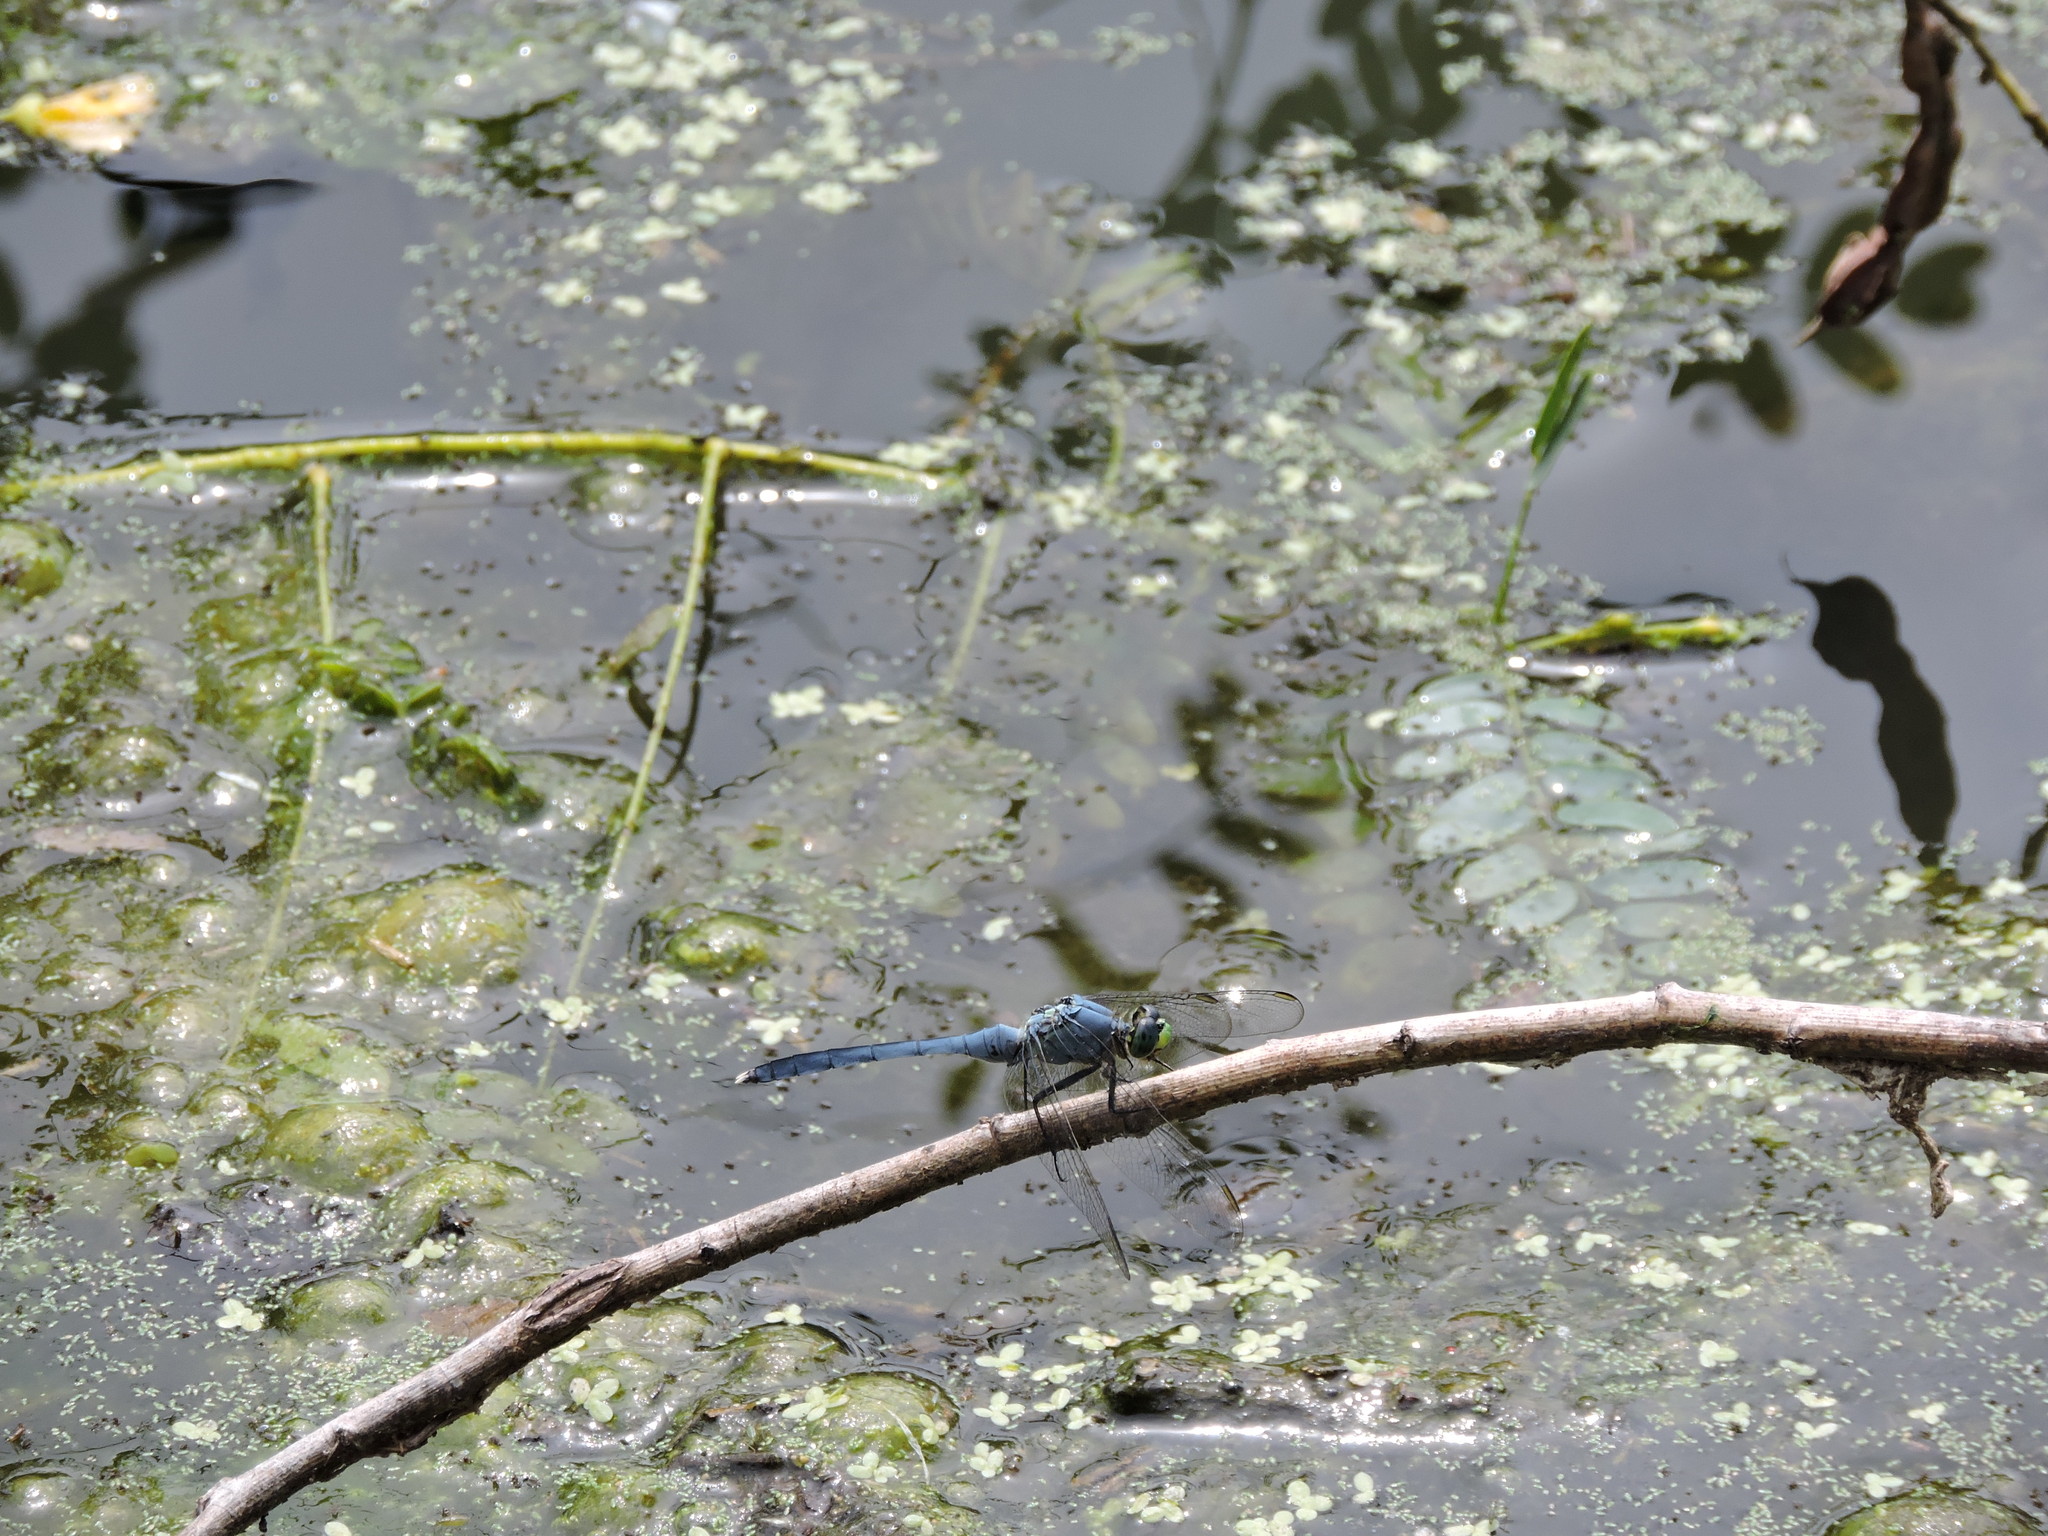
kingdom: Animalia
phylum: Arthropoda
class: Insecta
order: Odonata
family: Libellulidae
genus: Erythemis
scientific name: Erythemis simplicicollis
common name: Eastern pondhawk
